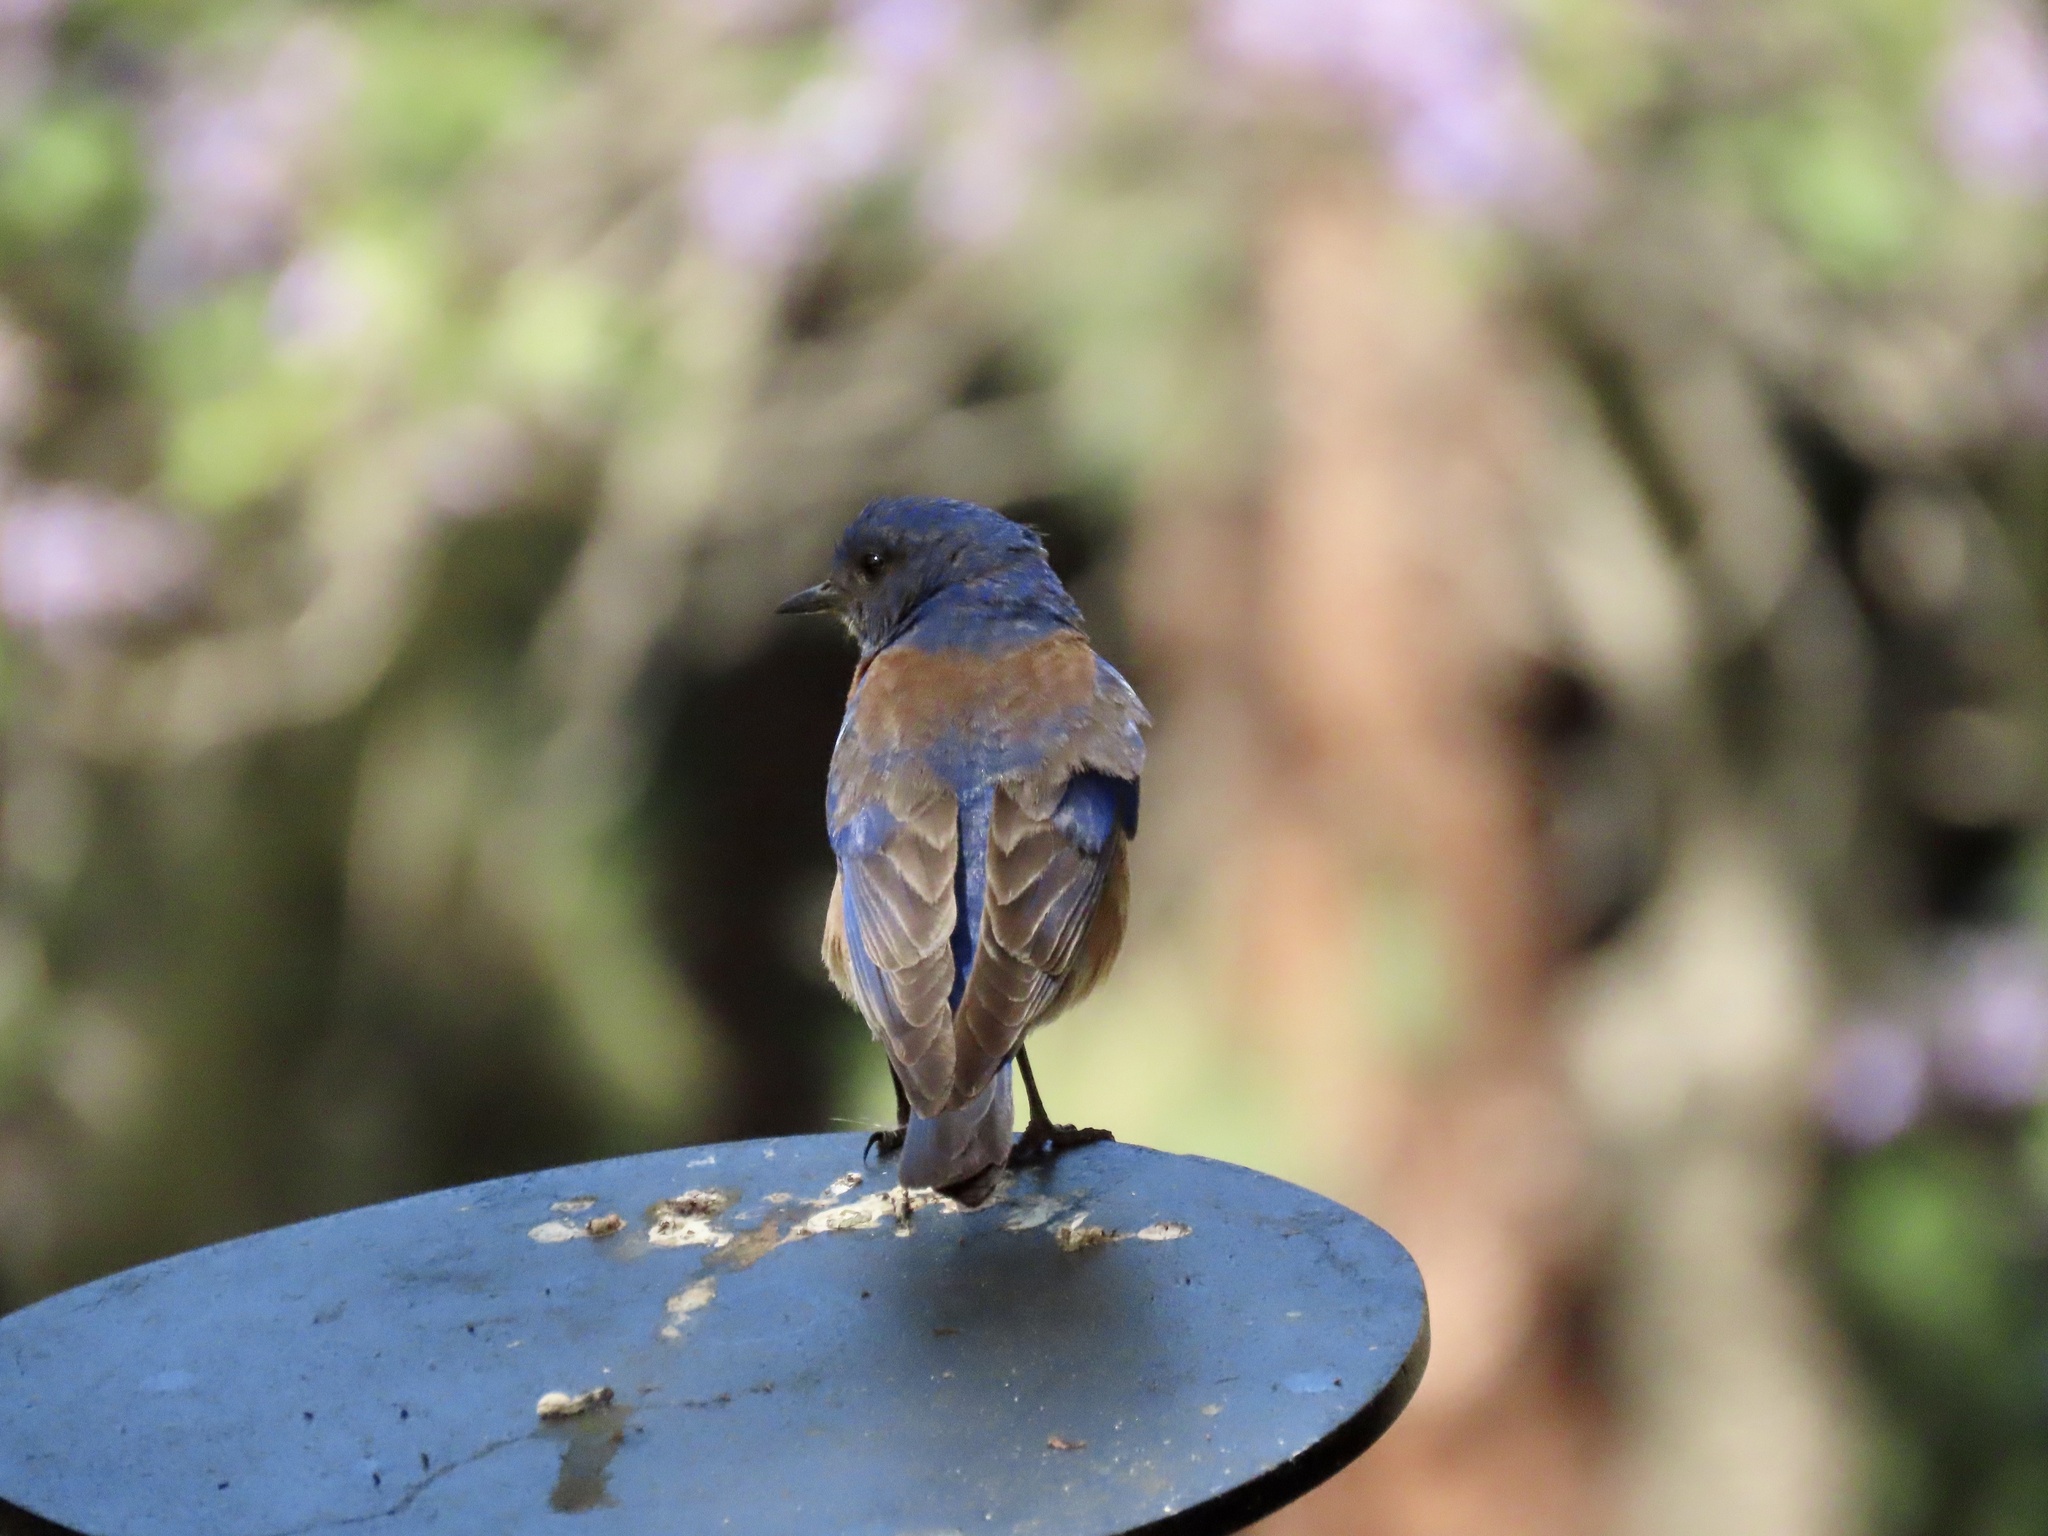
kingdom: Animalia
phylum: Chordata
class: Aves
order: Passeriformes
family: Turdidae
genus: Sialia
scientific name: Sialia mexicana
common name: Western bluebird
